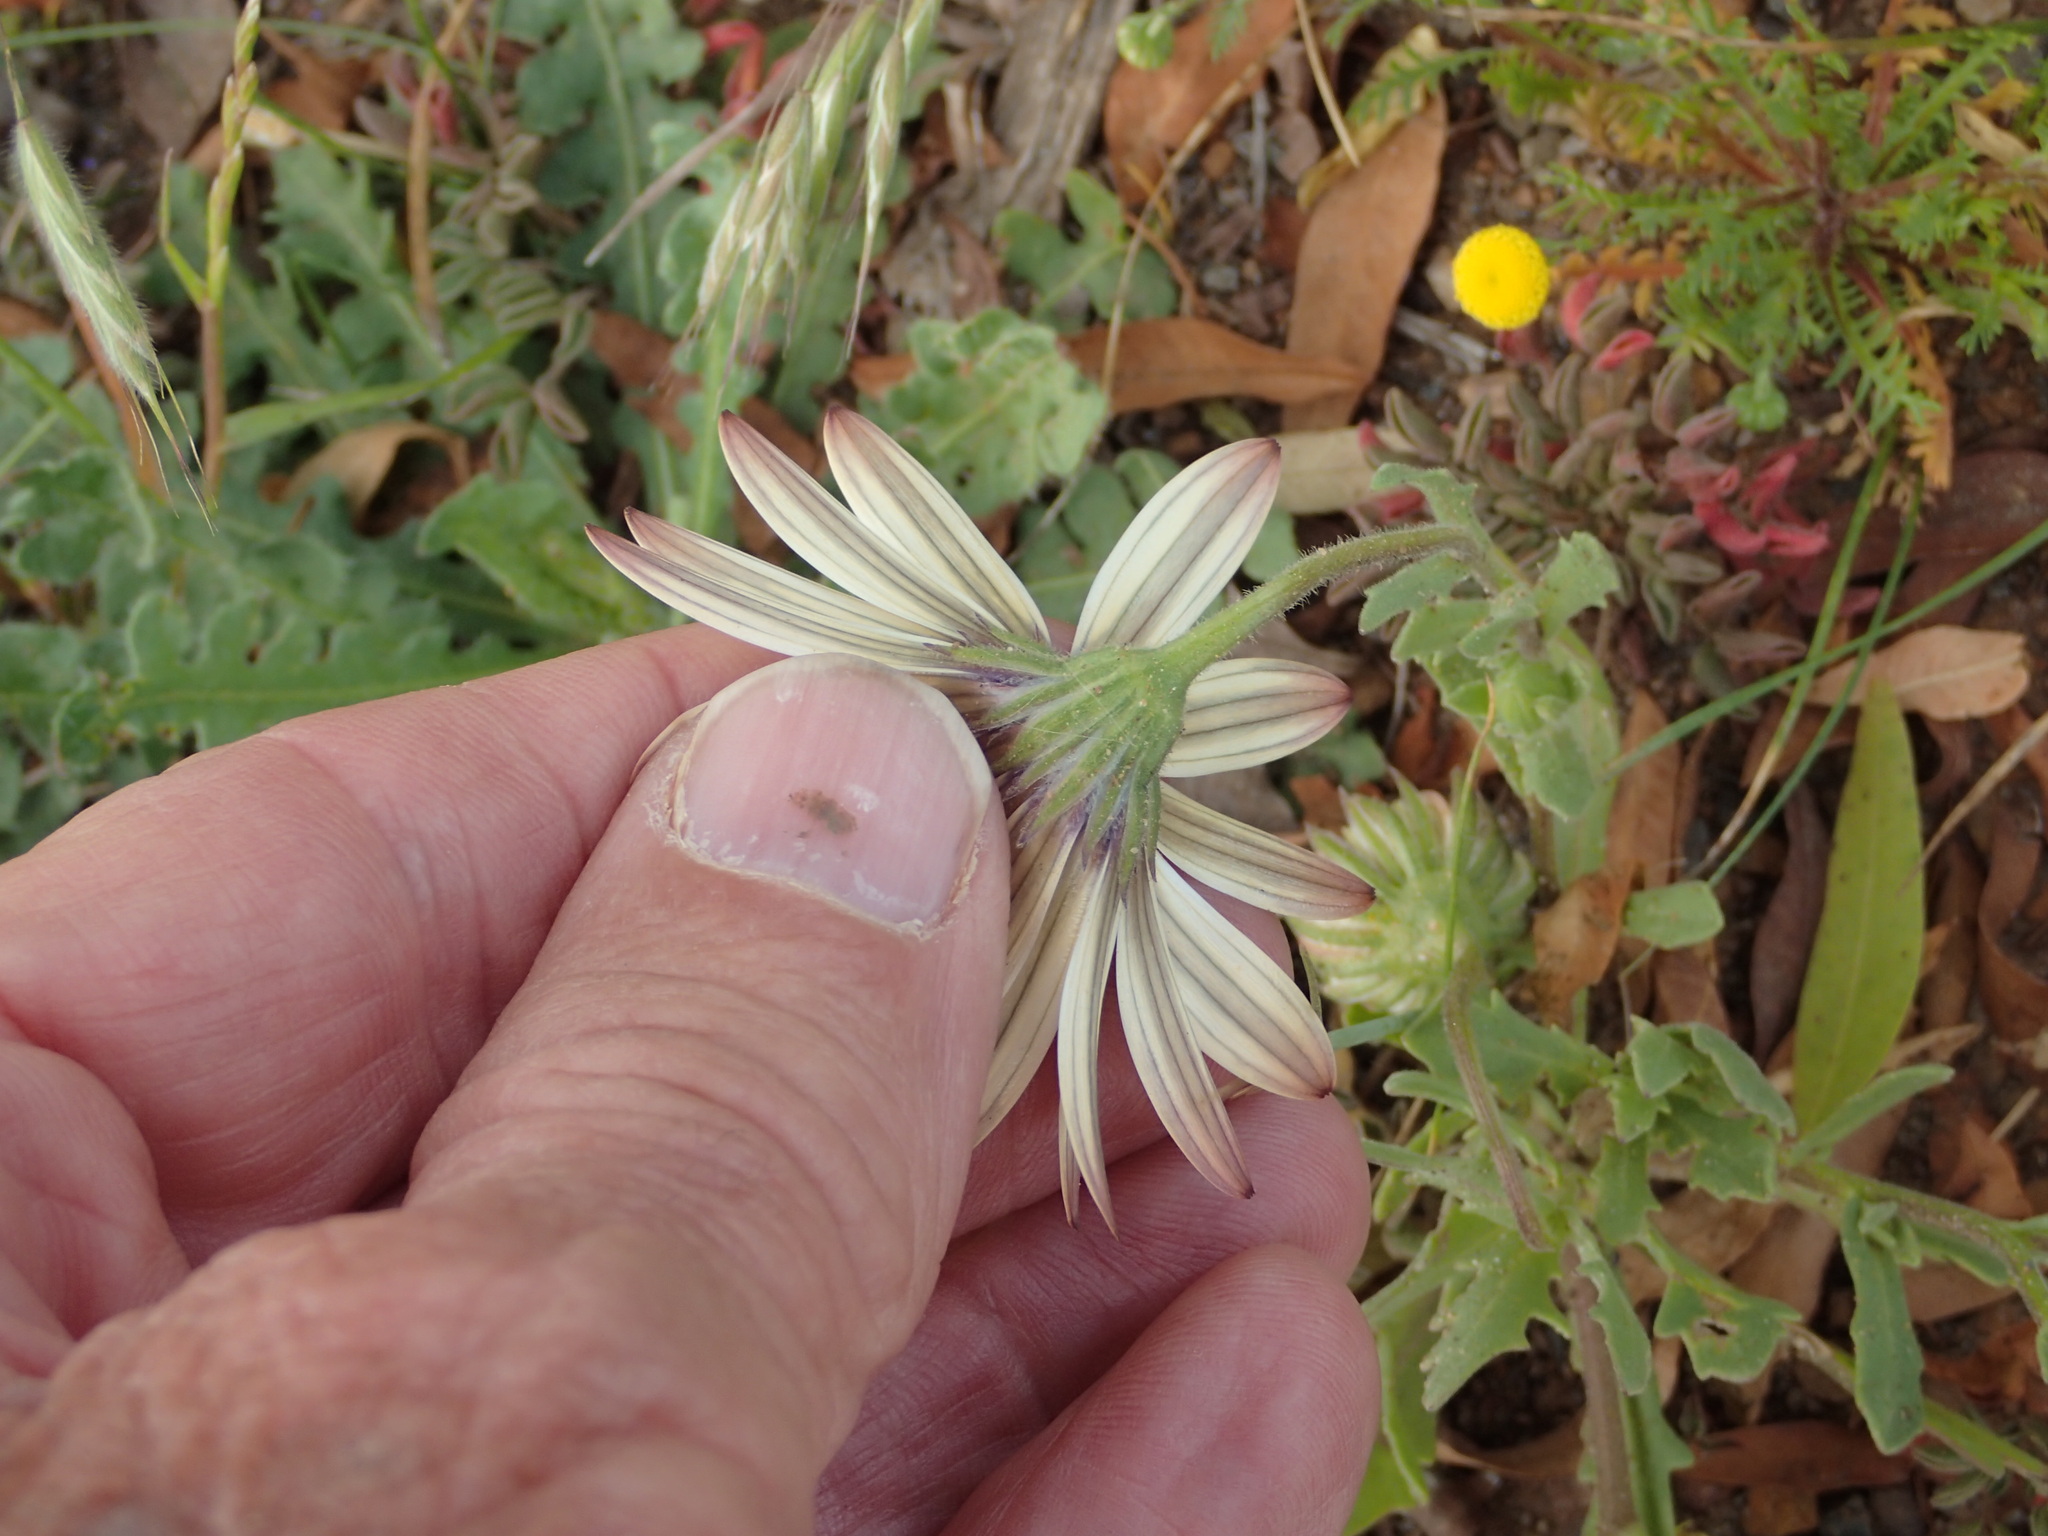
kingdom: Plantae
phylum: Tracheophyta
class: Magnoliopsida
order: Asterales
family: Asteraceae
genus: Dimorphotheca
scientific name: Dimorphotheca pluvialis
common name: Weather prophet
